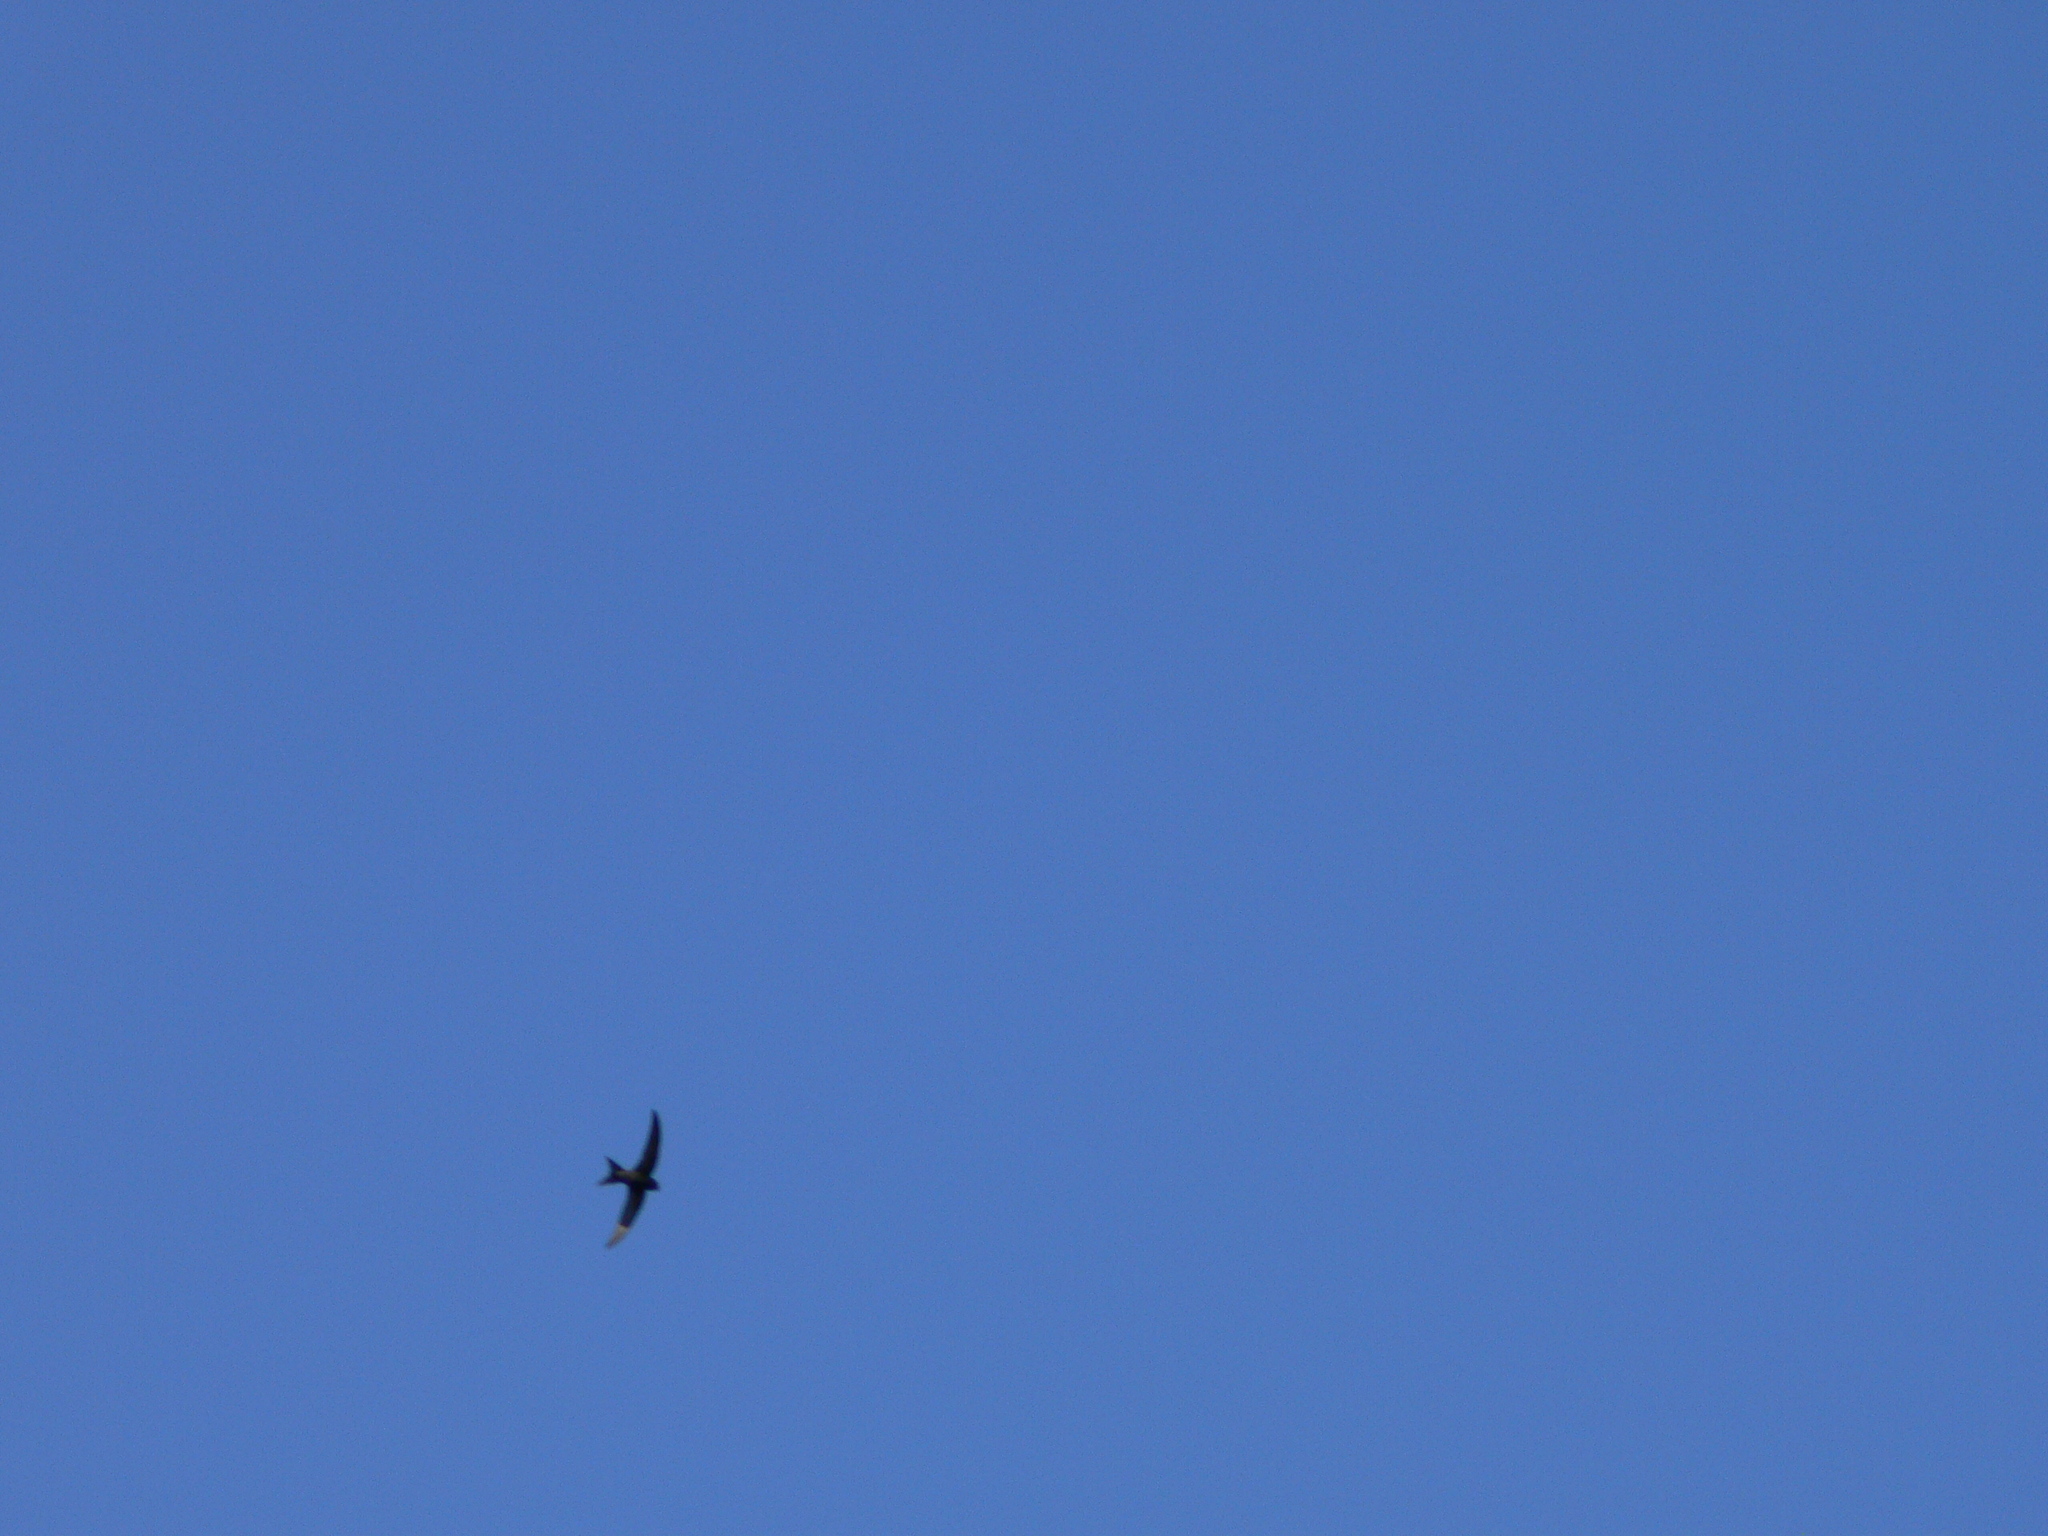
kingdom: Animalia
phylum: Chordata
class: Aves
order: Apodiformes
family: Apodidae
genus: Apus
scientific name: Apus apus
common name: Common swift
